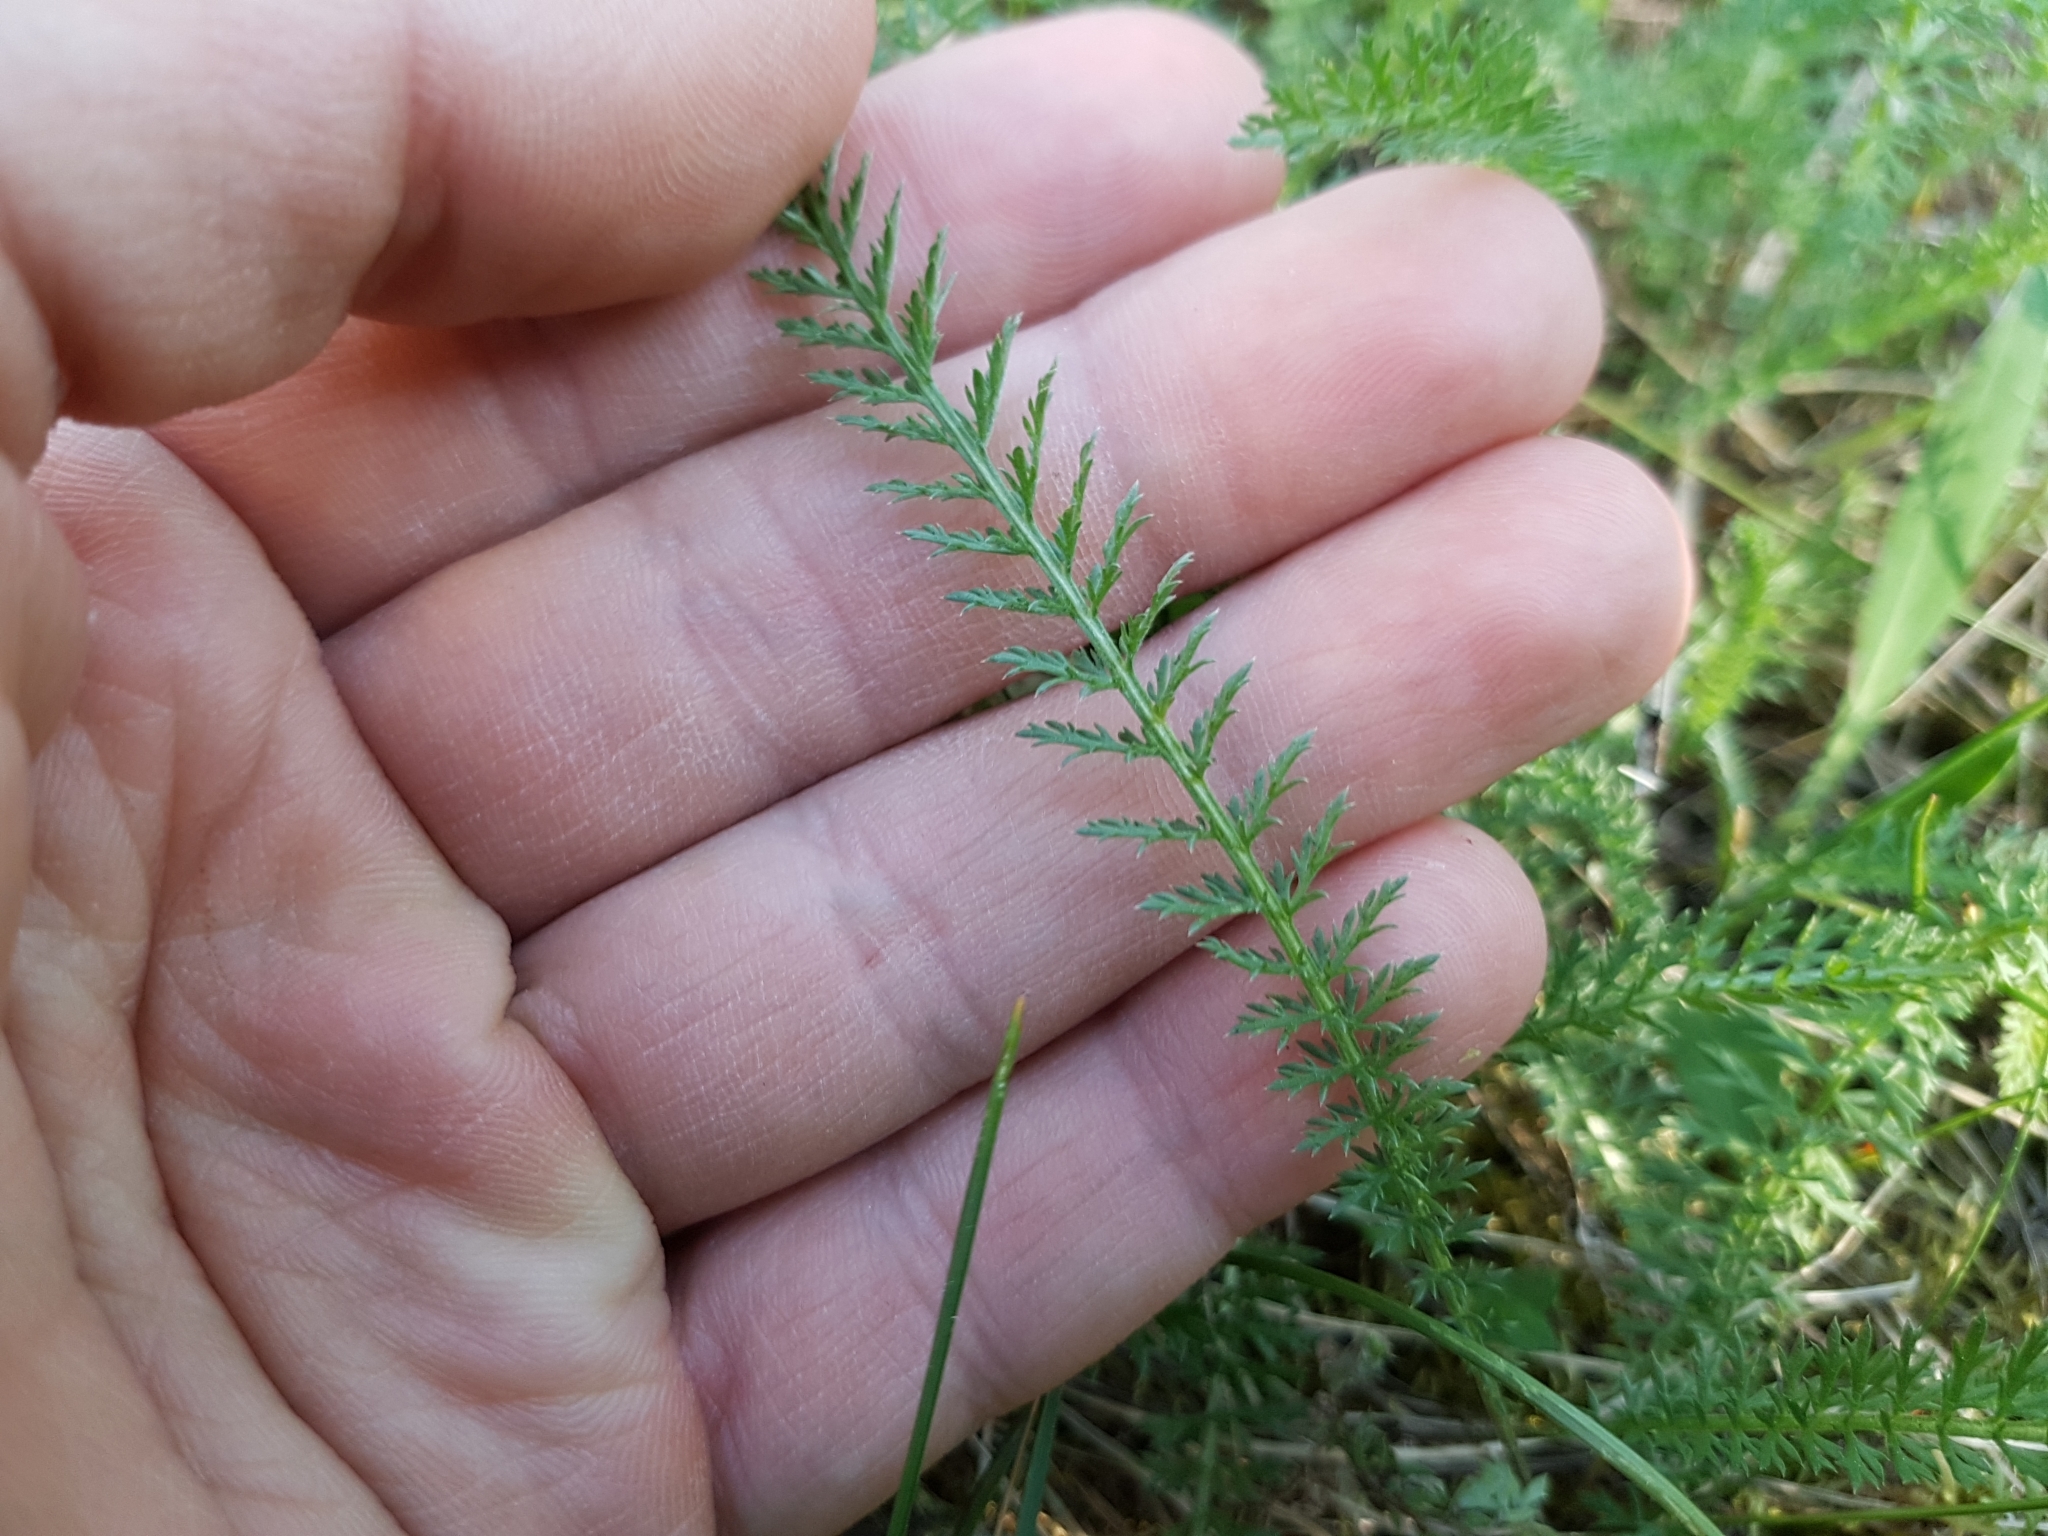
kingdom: Plantae
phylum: Tracheophyta
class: Magnoliopsida
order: Asterales
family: Asteraceae
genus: Achillea
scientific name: Achillea millefolium
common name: Yarrow
